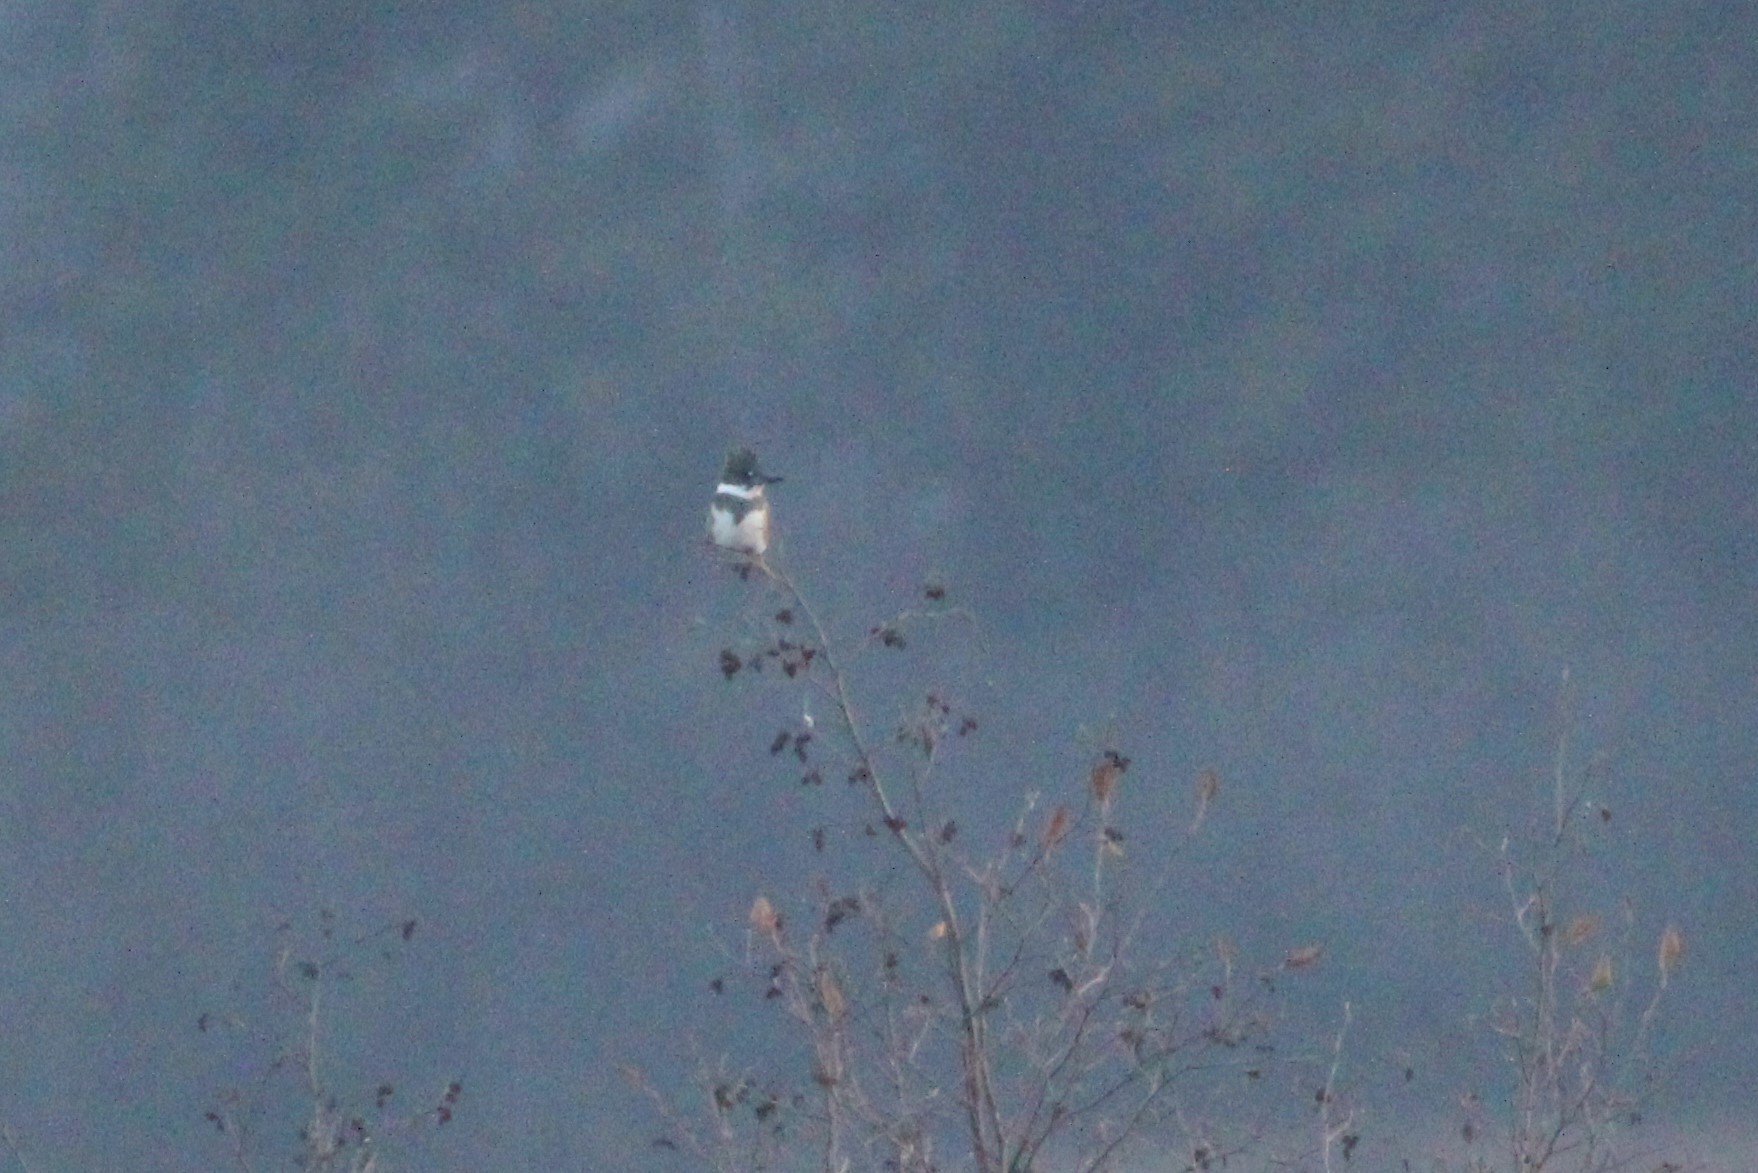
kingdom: Animalia
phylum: Chordata
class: Aves
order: Coraciiformes
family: Alcedinidae
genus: Megaceryle
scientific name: Megaceryle alcyon
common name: Belted kingfisher
